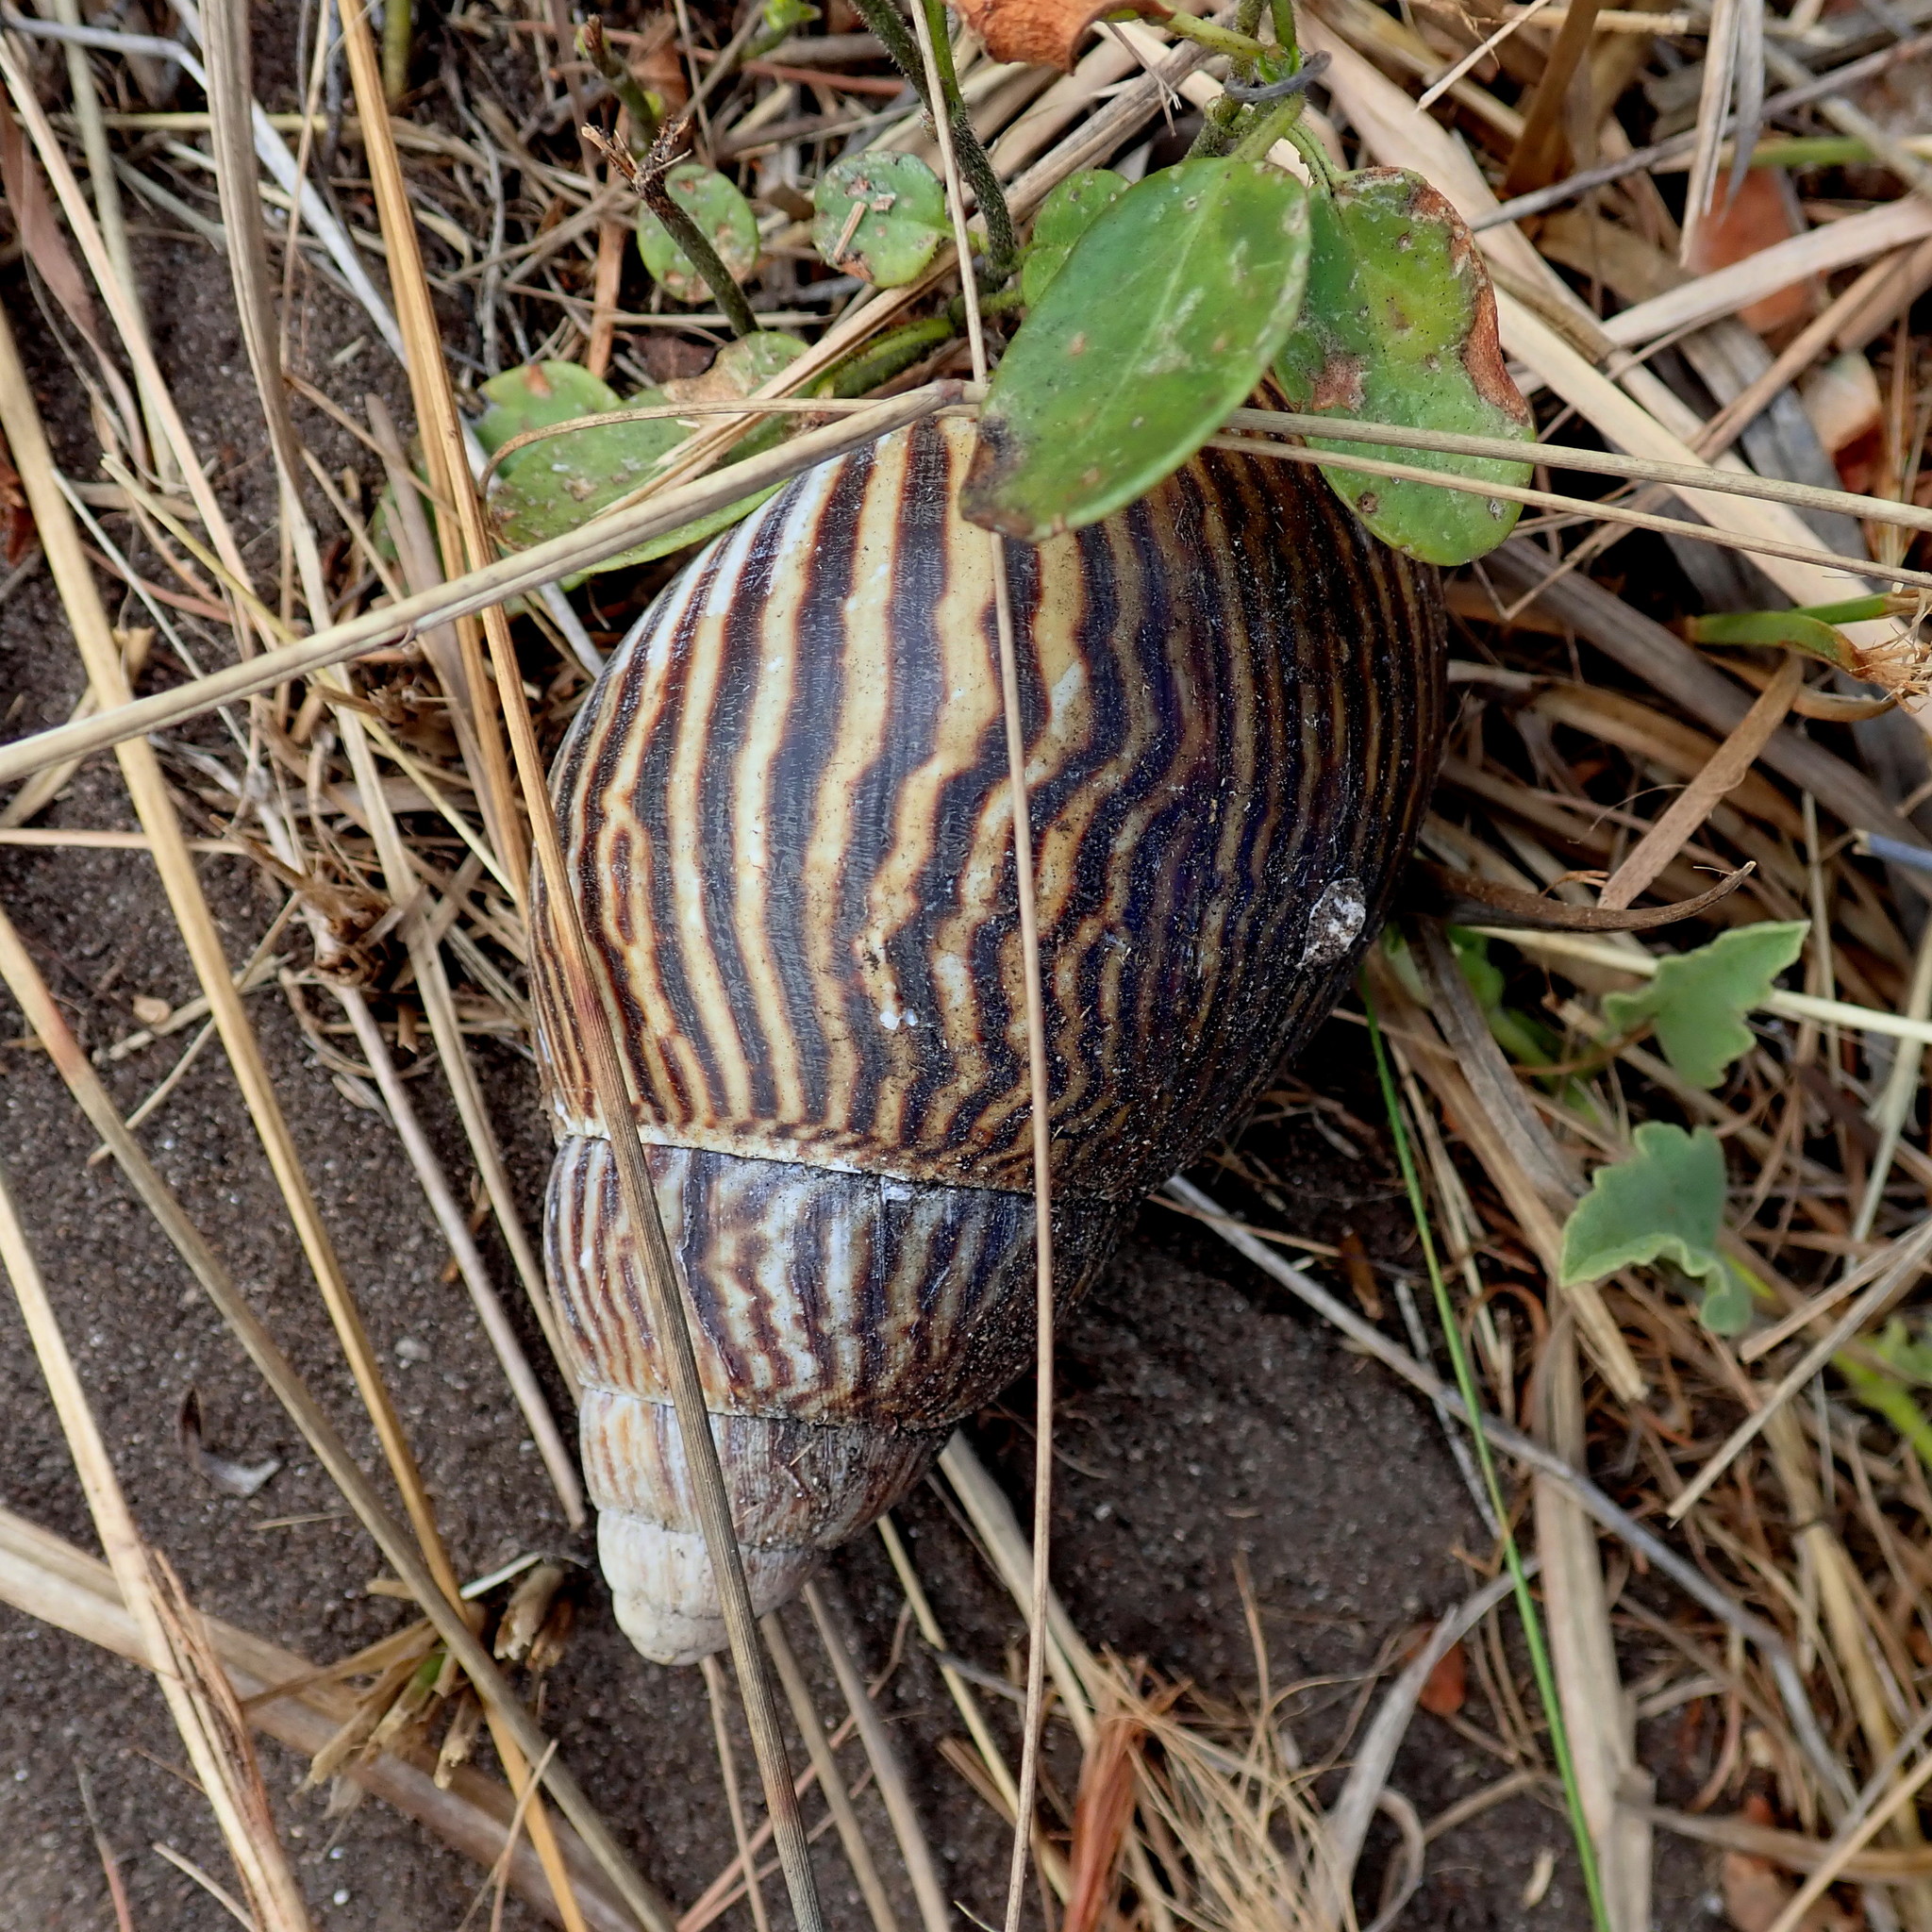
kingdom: Animalia
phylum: Mollusca
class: Gastropoda
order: Stylommatophora
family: Achatinidae
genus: Cochlitoma
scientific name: Cochlitoma zebra
